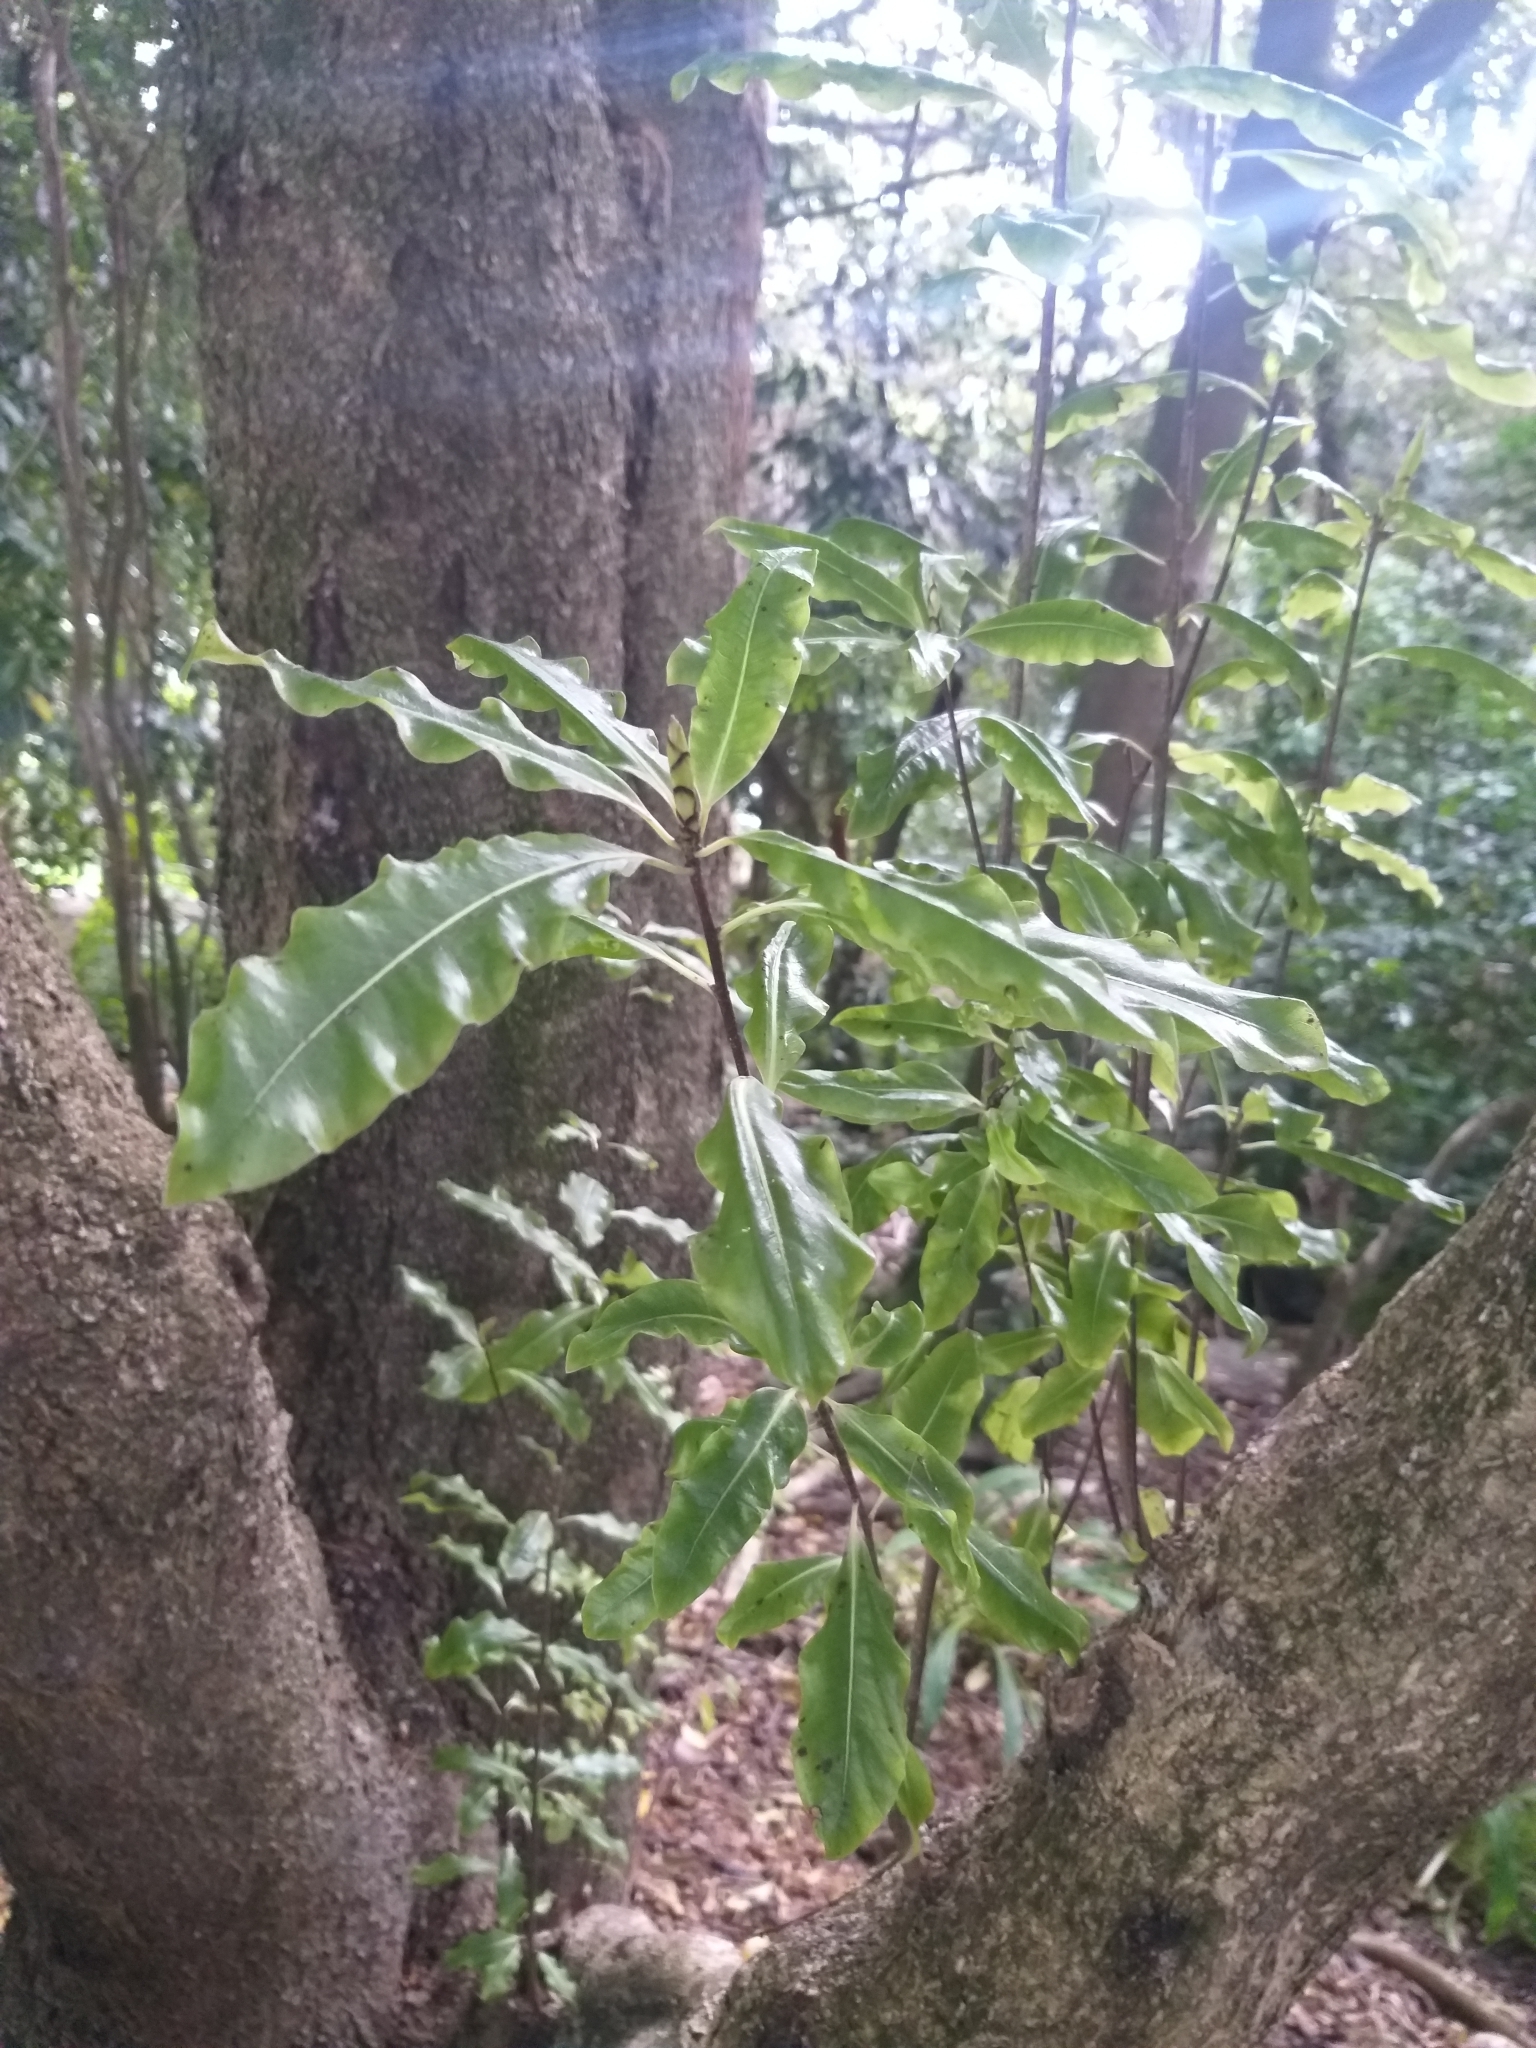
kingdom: Plantae
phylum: Tracheophyta
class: Magnoliopsida
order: Apiales
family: Pittosporaceae
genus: Pittosporum
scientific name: Pittosporum eugenioides
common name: Lemonwood
